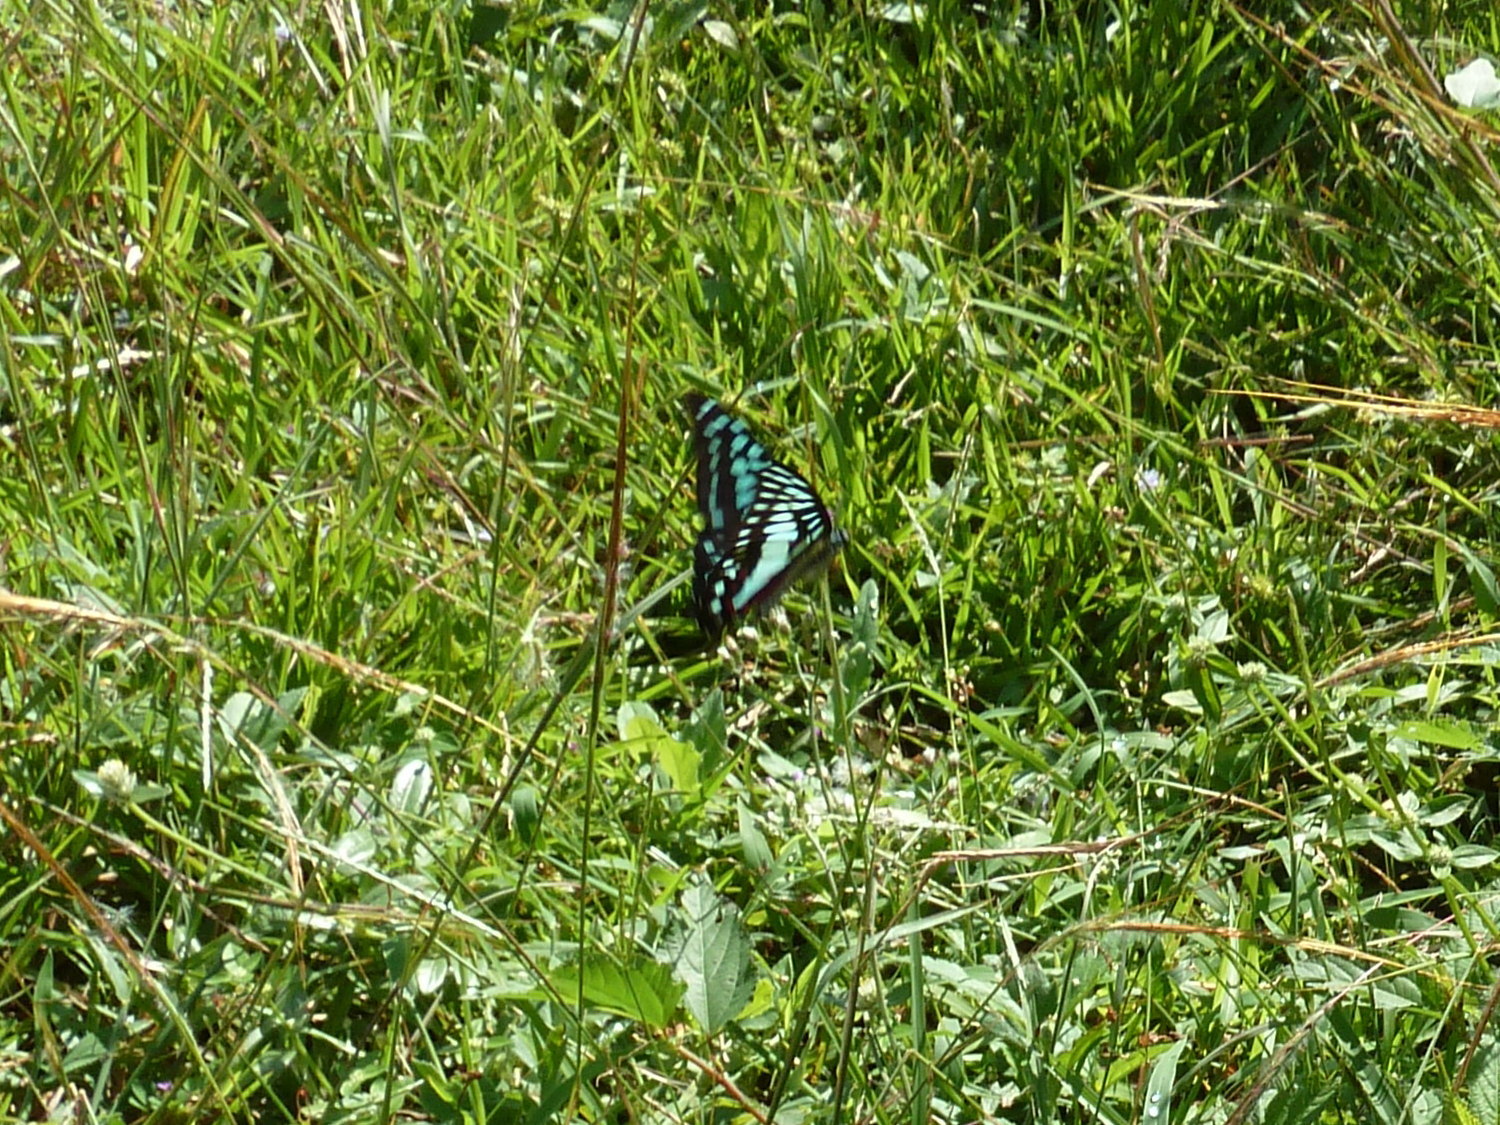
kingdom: Animalia
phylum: Arthropoda
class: Insecta
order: Lepidoptera
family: Papilionidae
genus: Graphium
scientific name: Graphium doson
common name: Common jay
